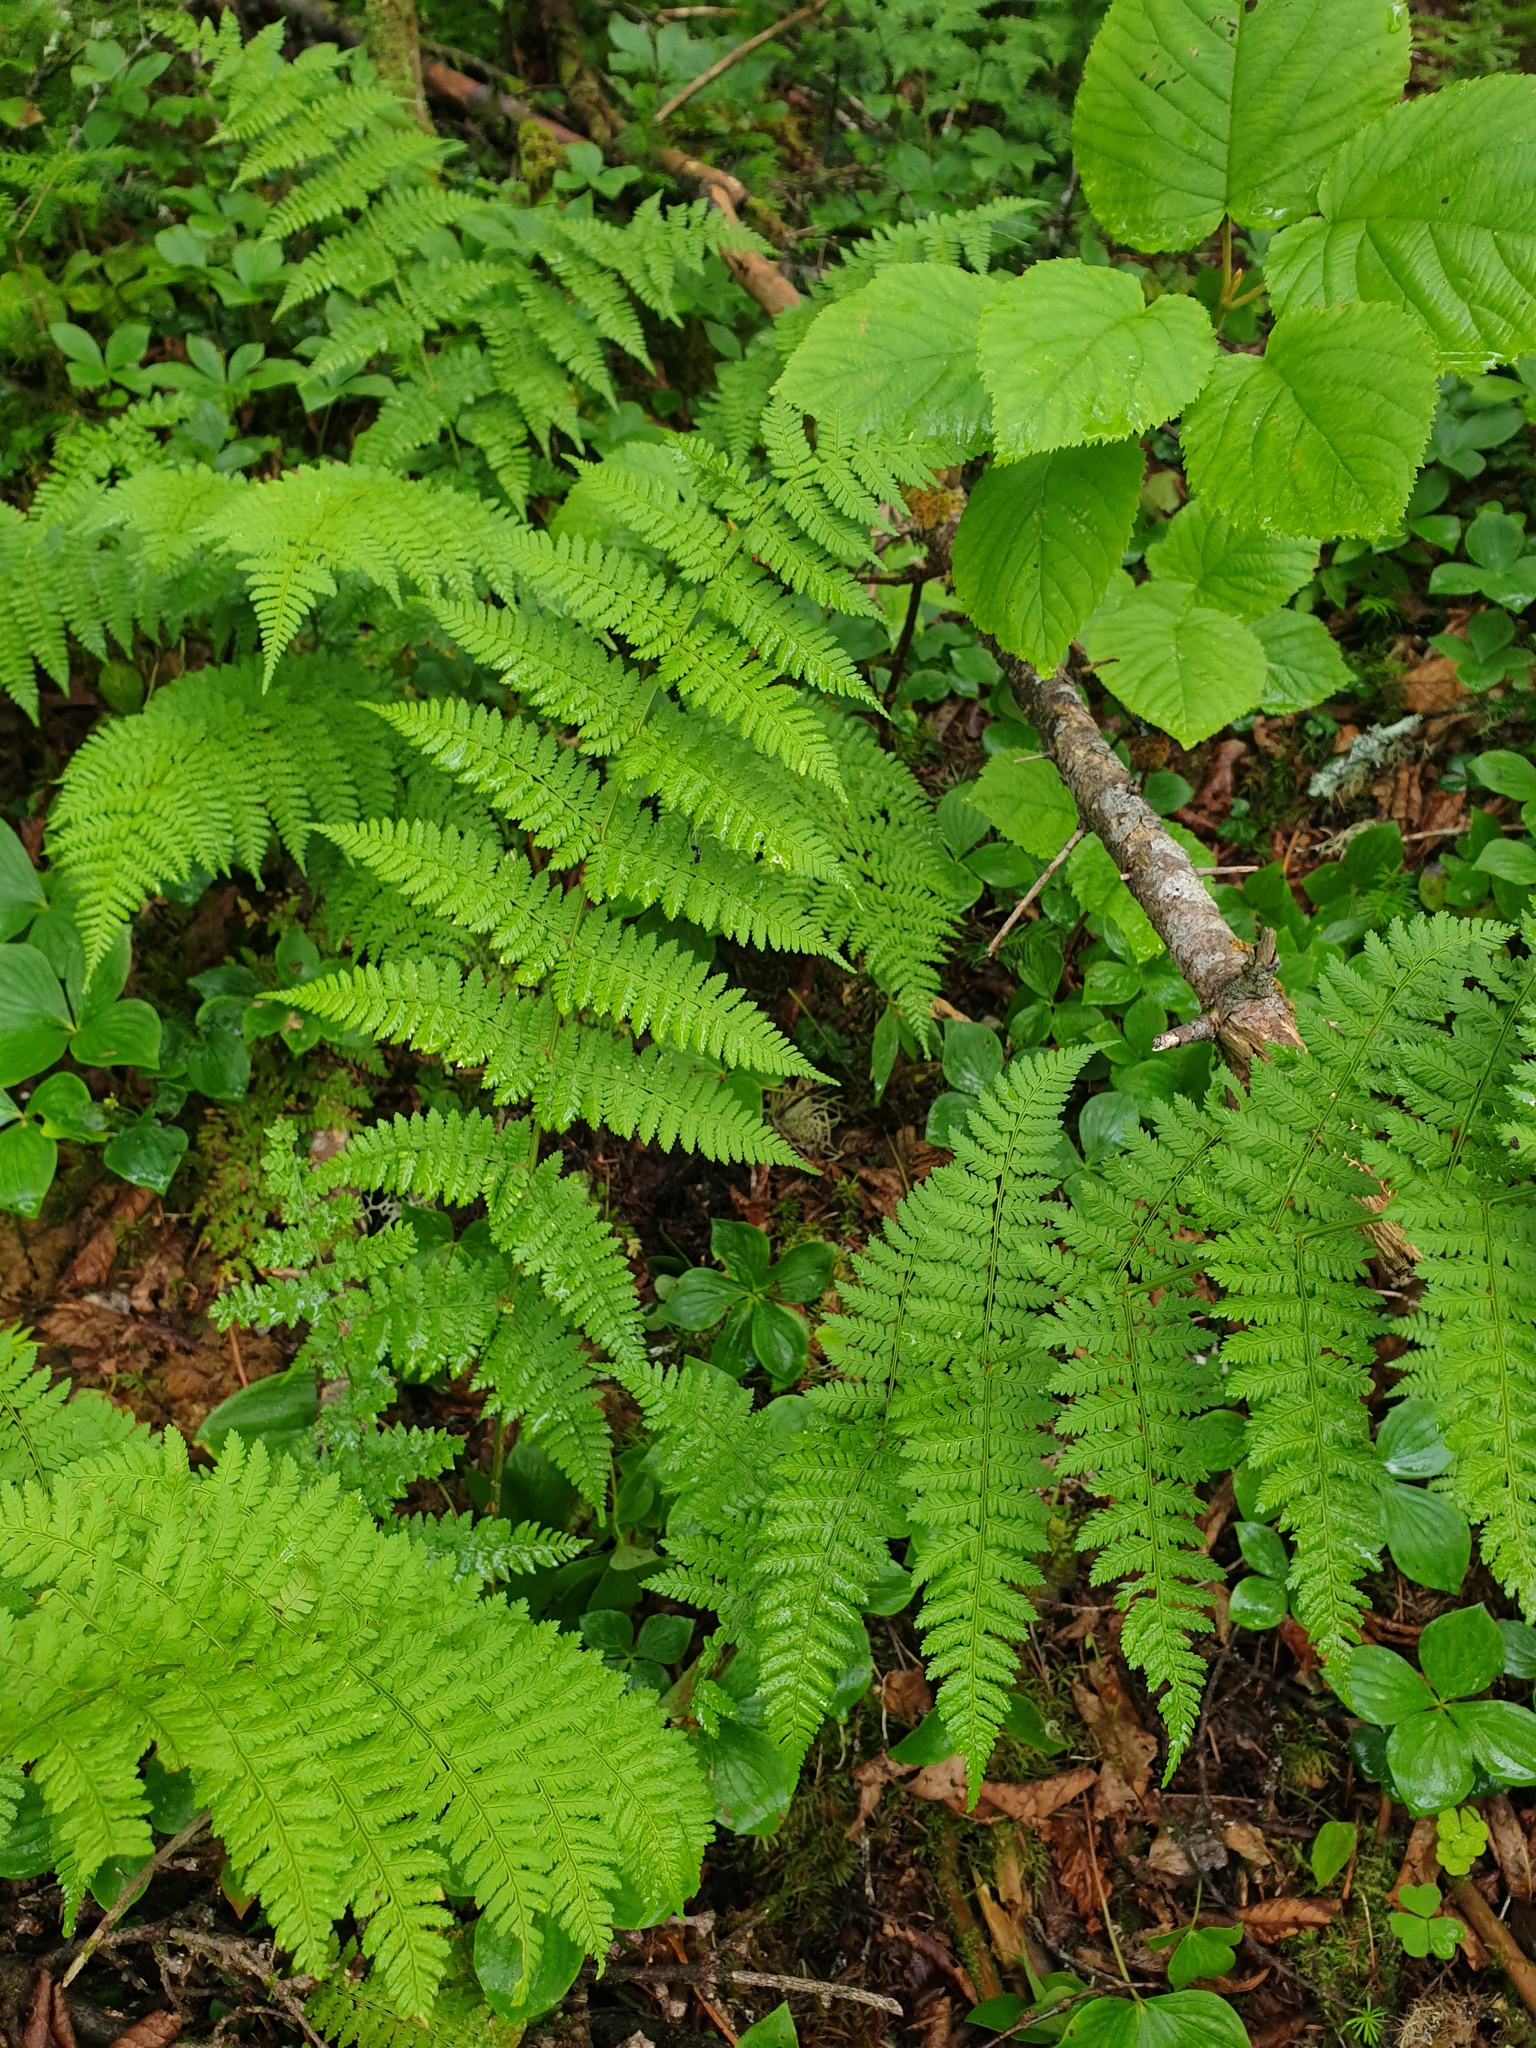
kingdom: Plantae
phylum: Tracheophyta
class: Polypodiopsida
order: Polypodiales
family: Dryopteridaceae
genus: Dryopteris
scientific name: Dryopteris intermedia
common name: Evergreen wood fern
